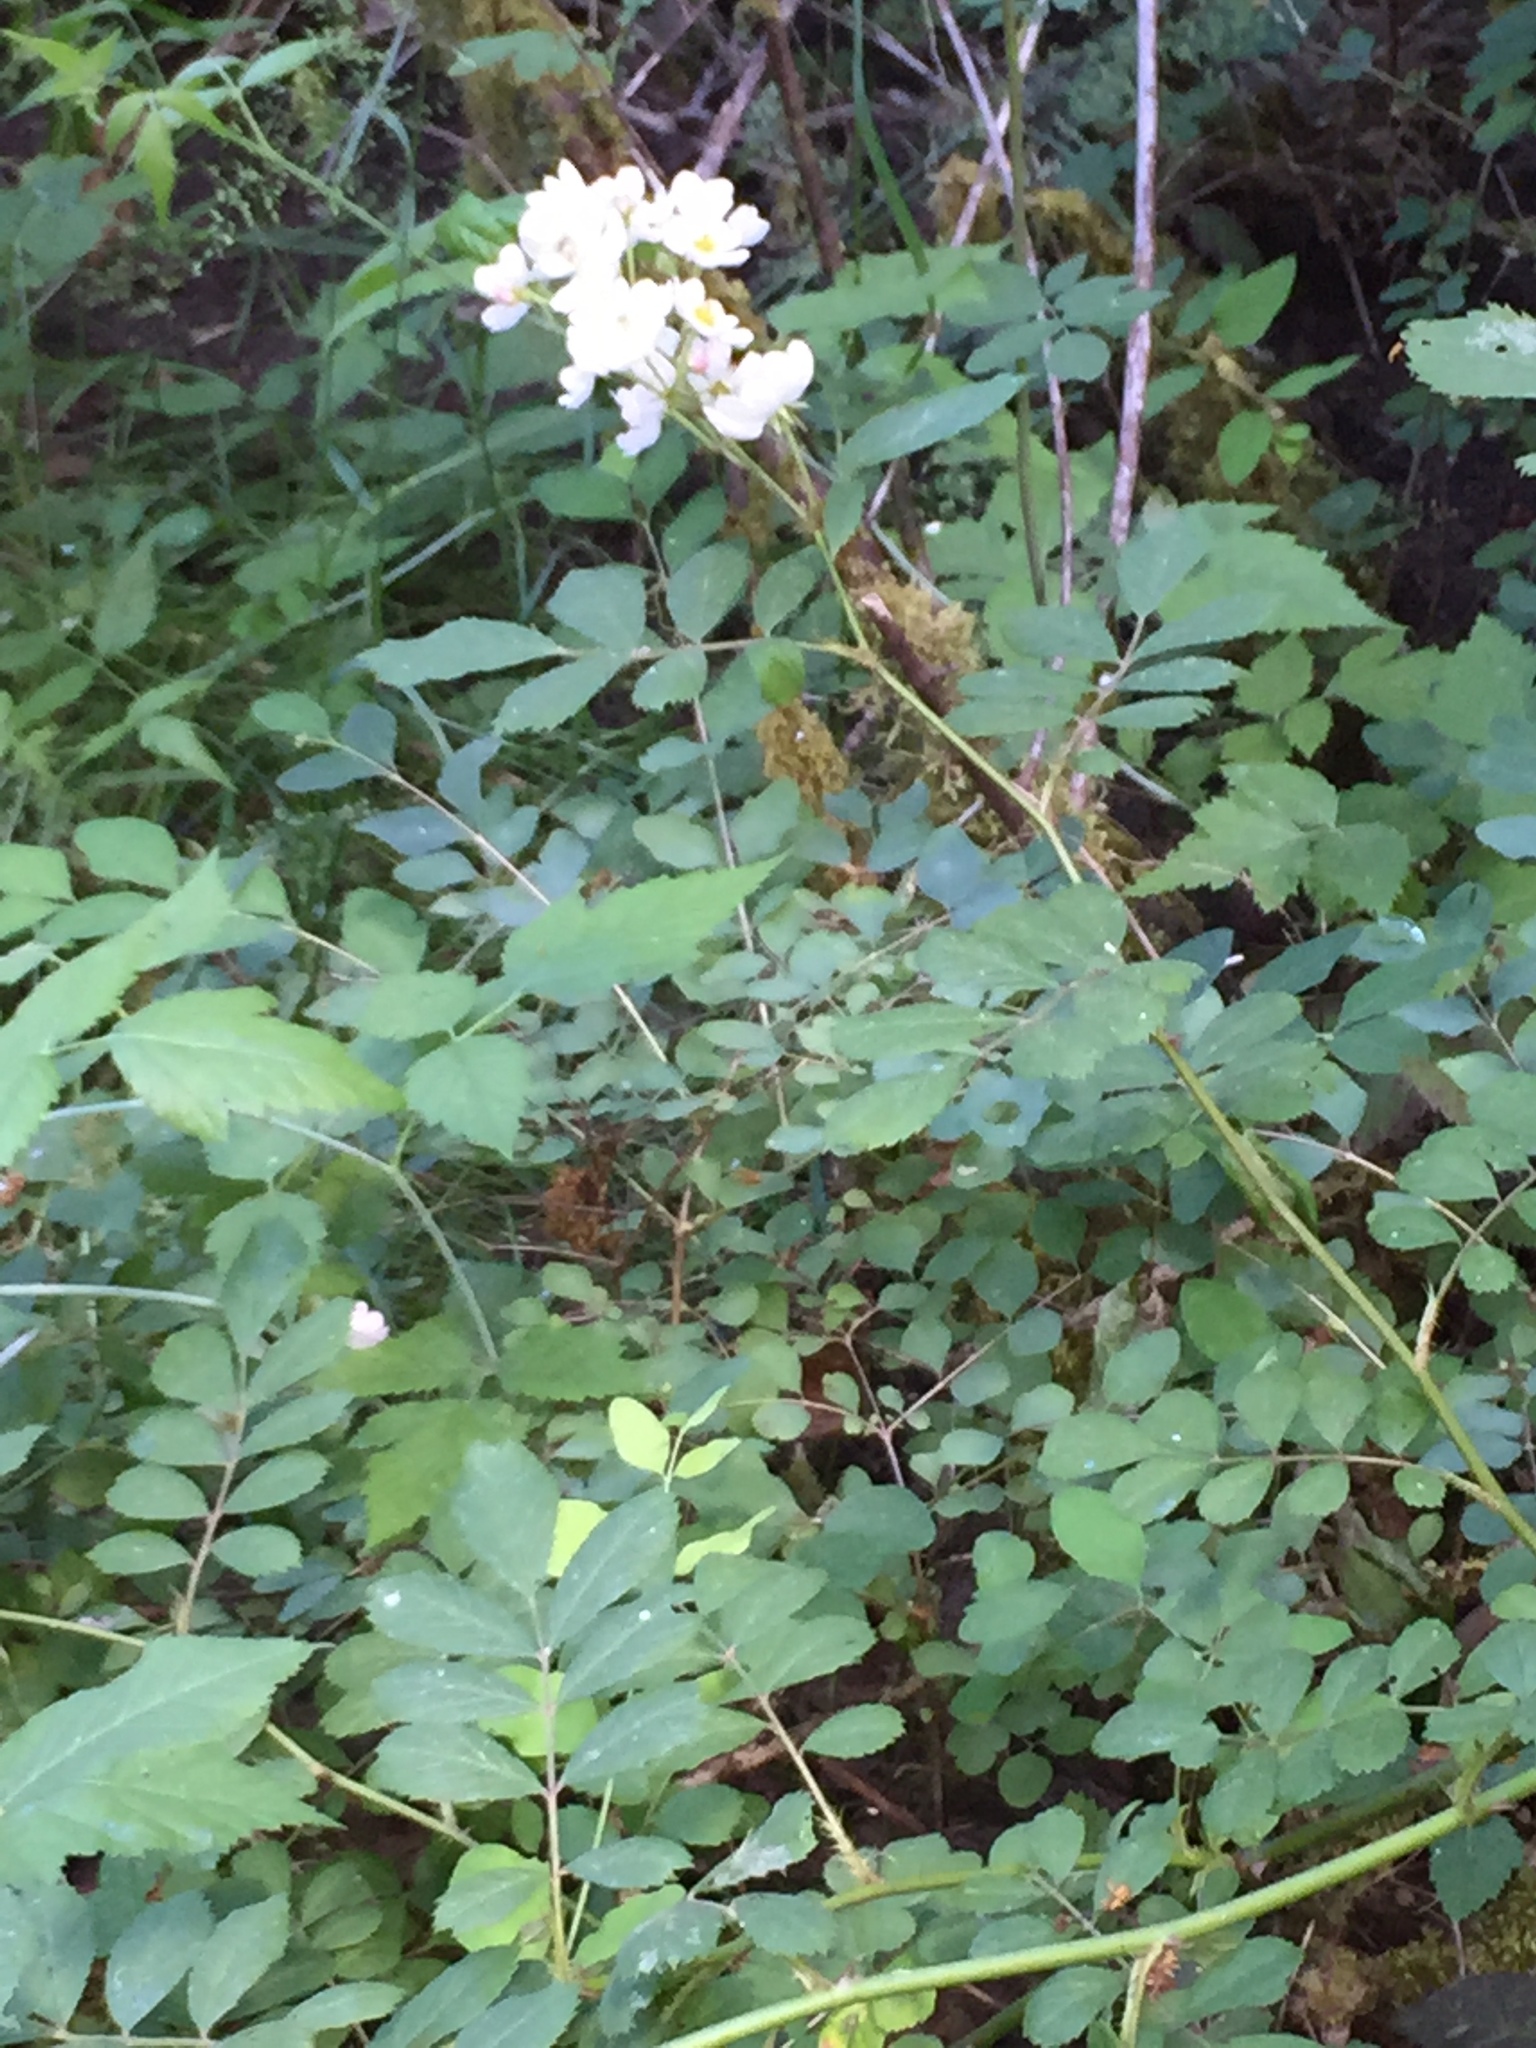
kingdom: Plantae
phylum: Tracheophyta
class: Magnoliopsida
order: Rosales
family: Rosaceae
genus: Rosa
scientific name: Rosa multiflora
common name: Multiflora rose
